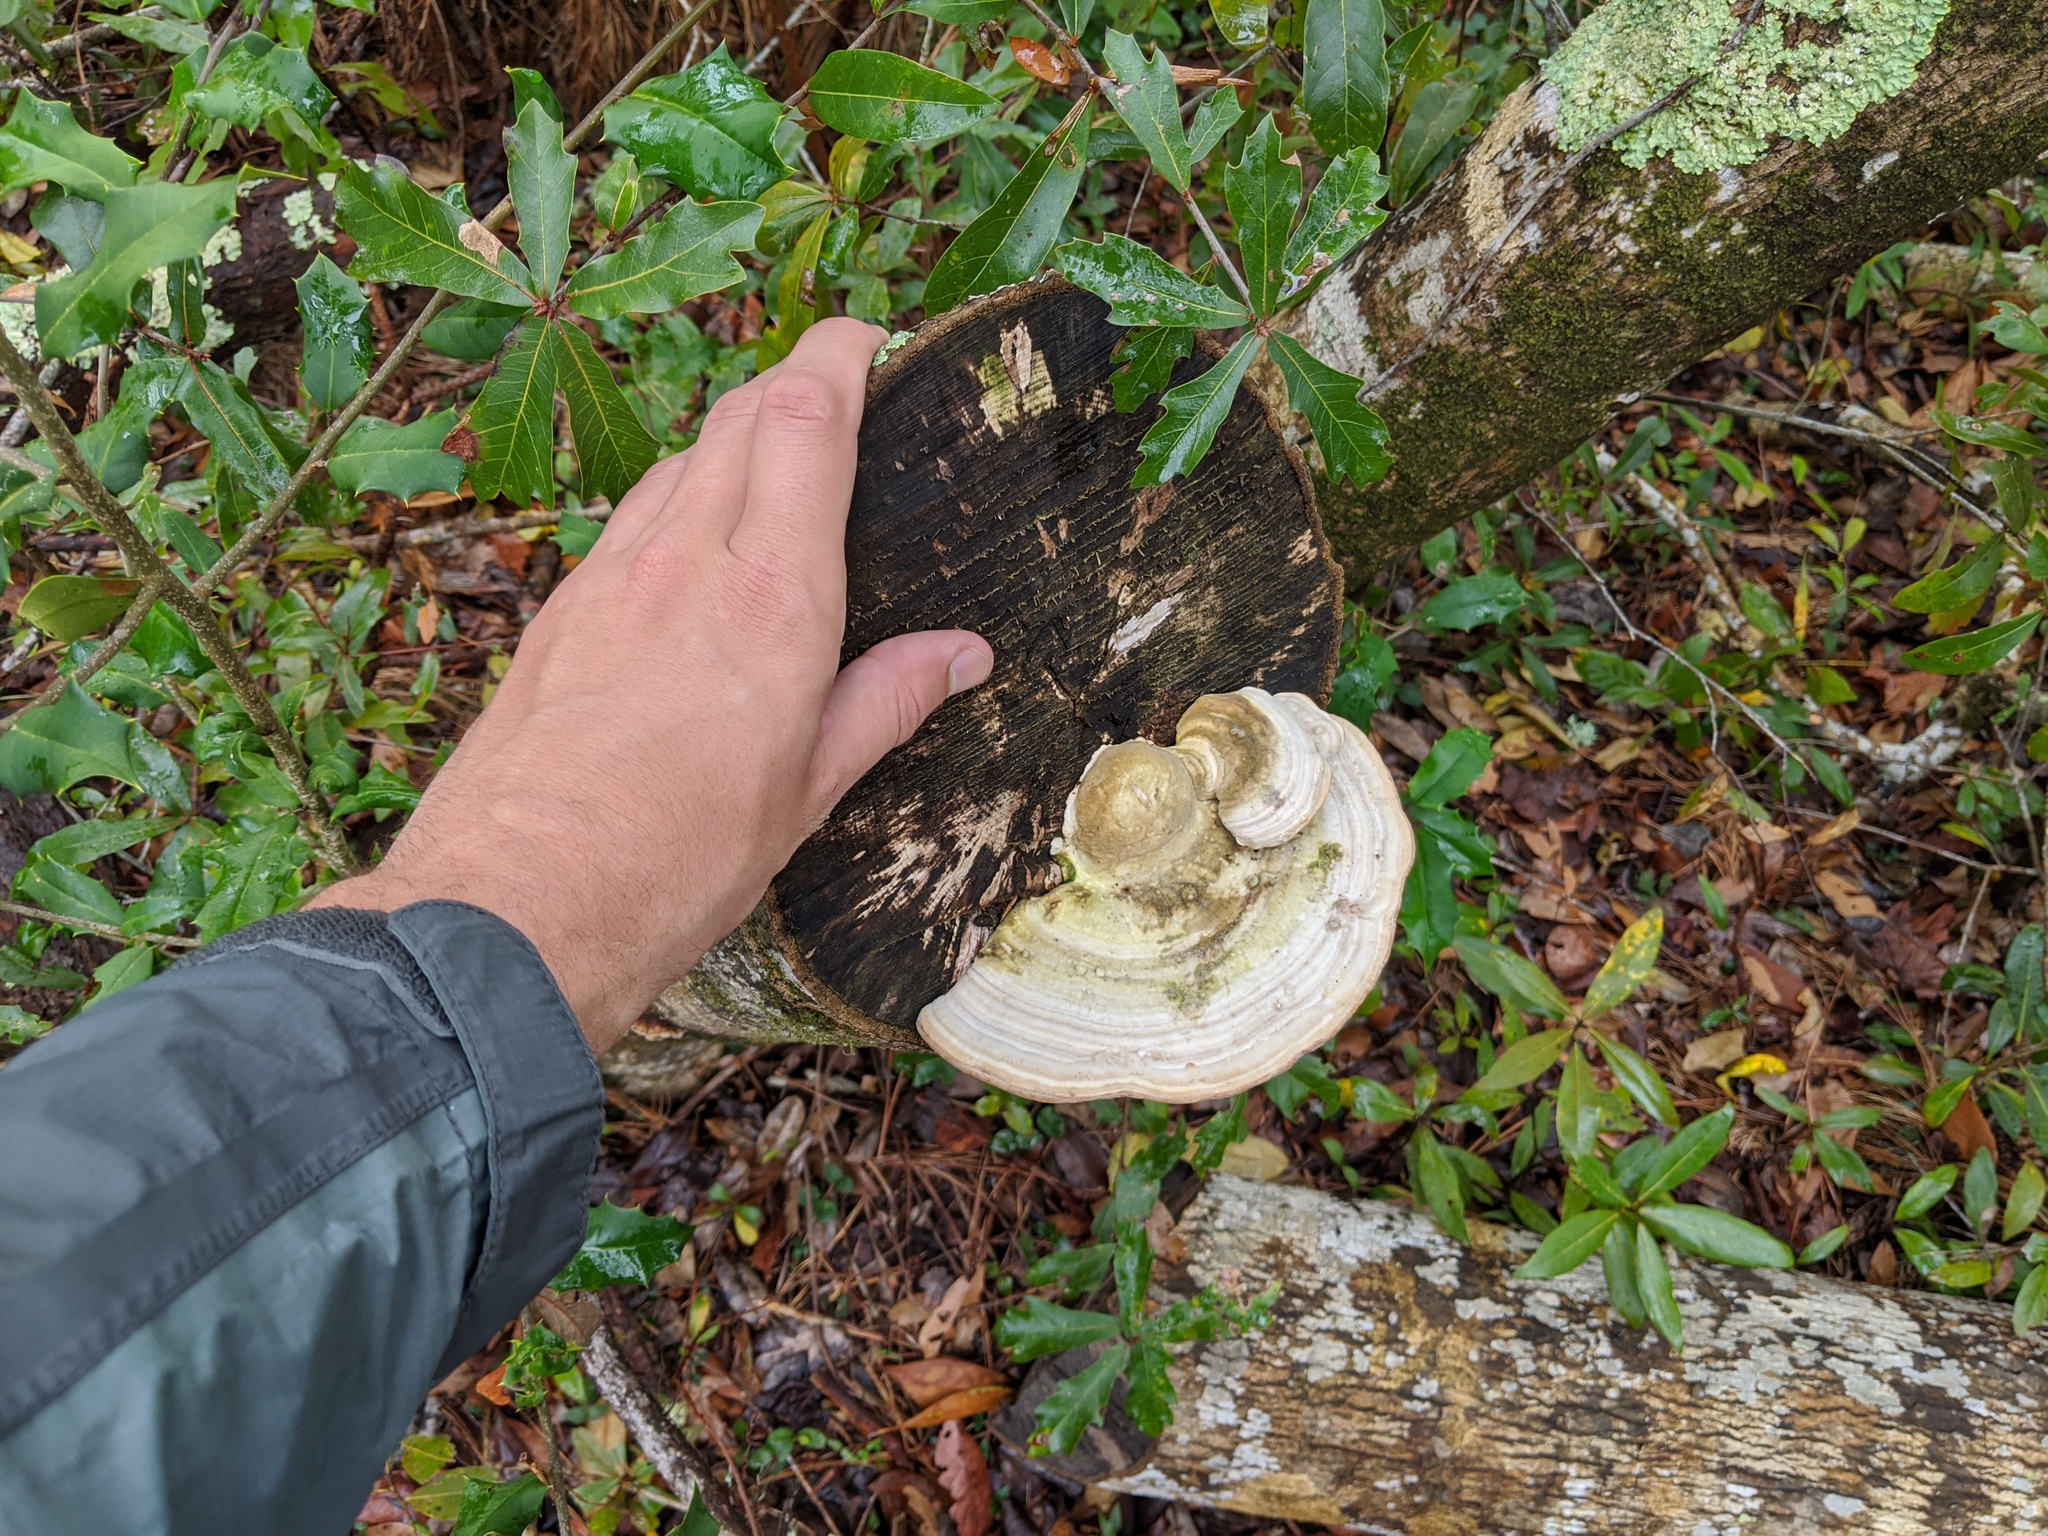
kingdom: Fungi
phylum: Basidiomycota
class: Agaricomycetes
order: Polyporales
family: Polyporaceae
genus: Trametes
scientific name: Trametes gibbosa
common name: Lumpy bracket
